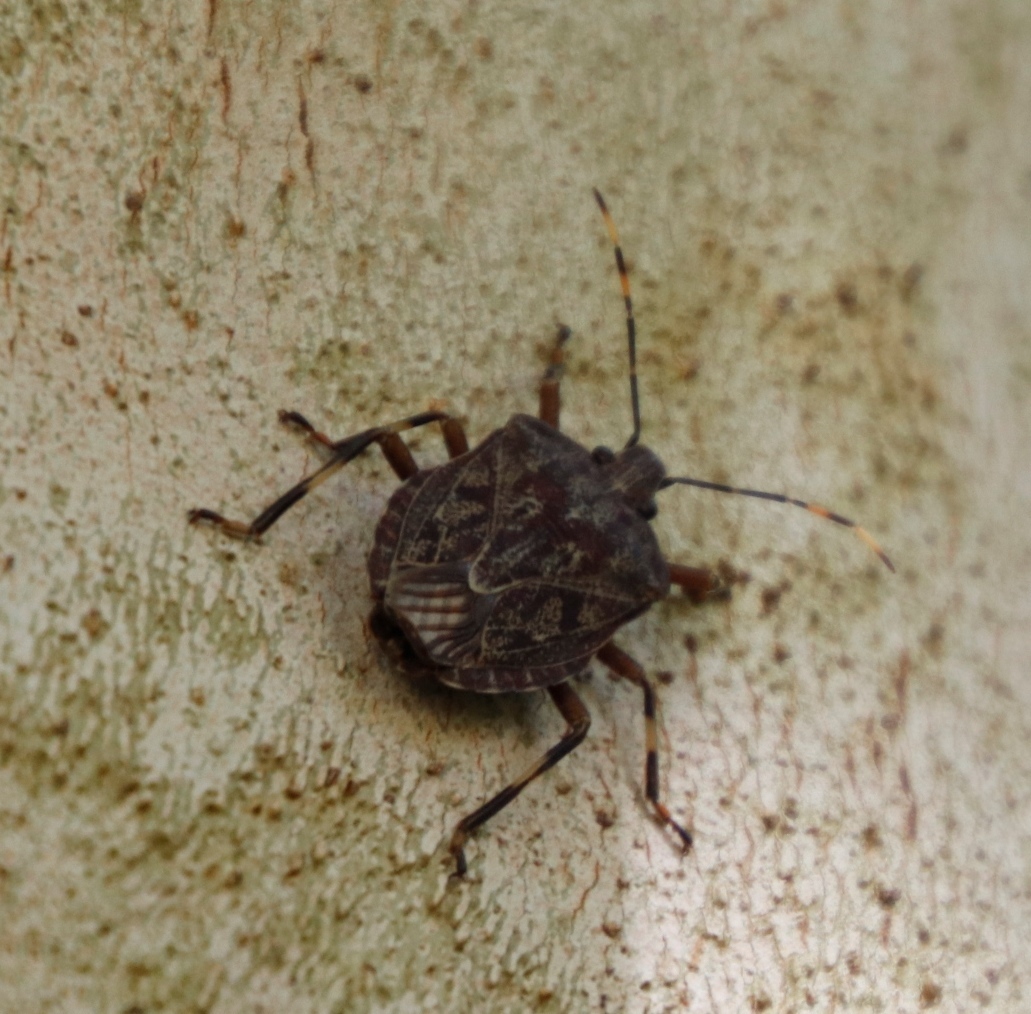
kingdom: Animalia
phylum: Arthropoda
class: Insecta
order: Hemiptera
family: Pentatomidae
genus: Coenomorpha
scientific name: Coenomorpha nervosa
